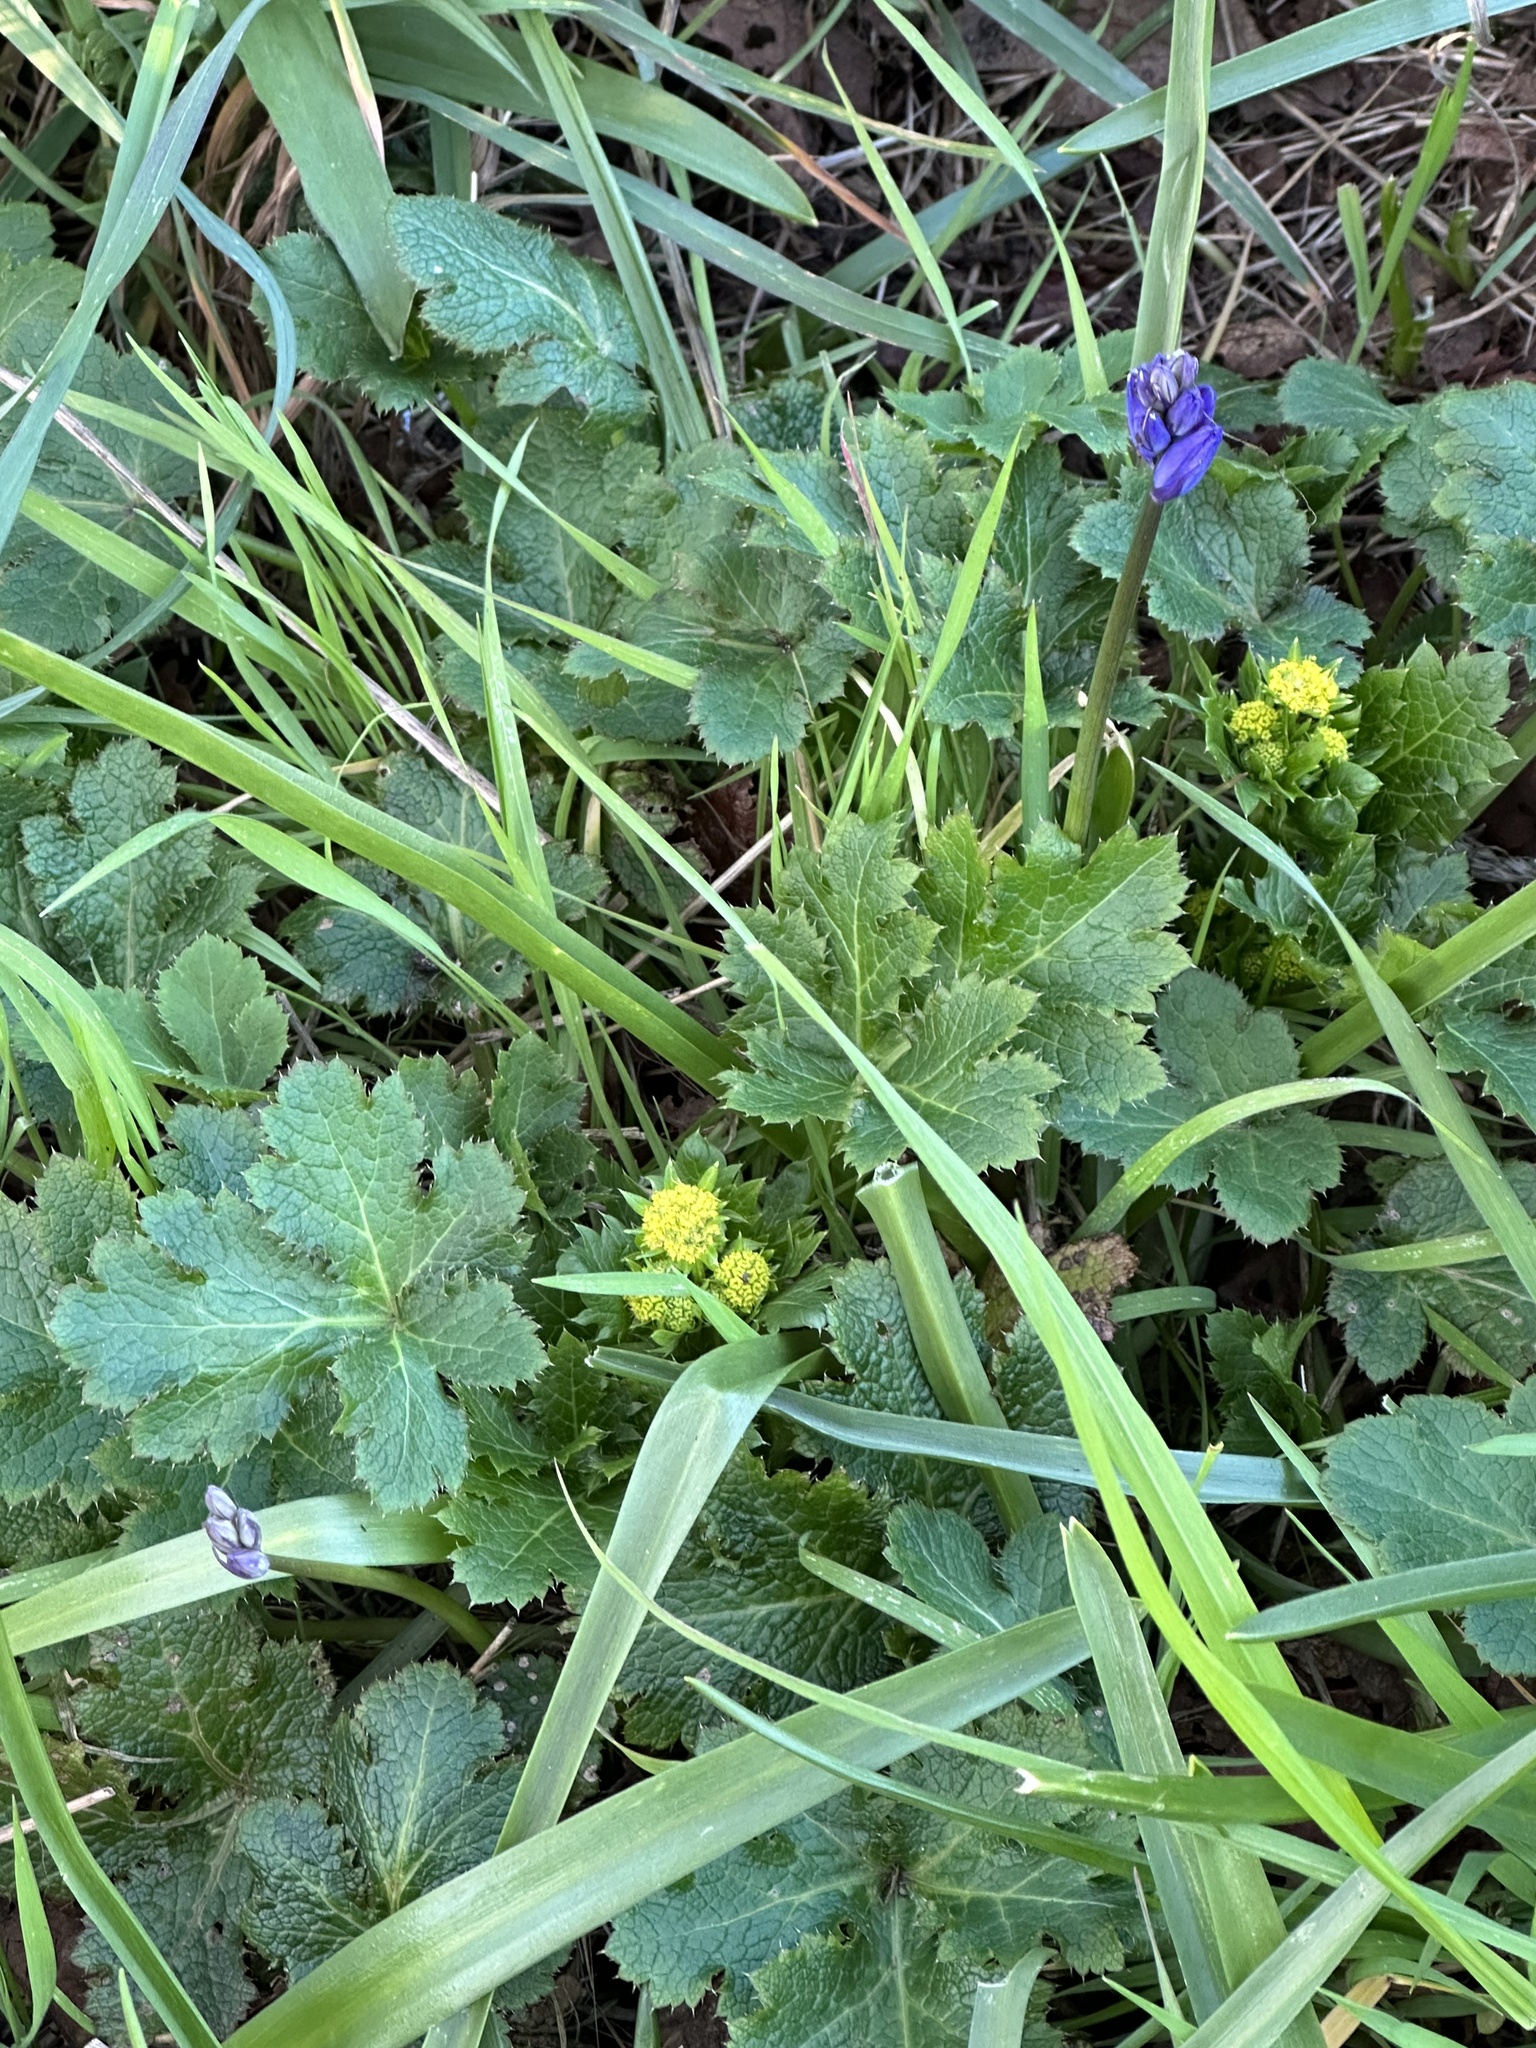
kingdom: Plantae
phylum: Tracheophyta
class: Magnoliopsida
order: Apiales
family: Apiaceae
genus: Sanicula
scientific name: Sanicula crassicaulis
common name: Western snakeroot
